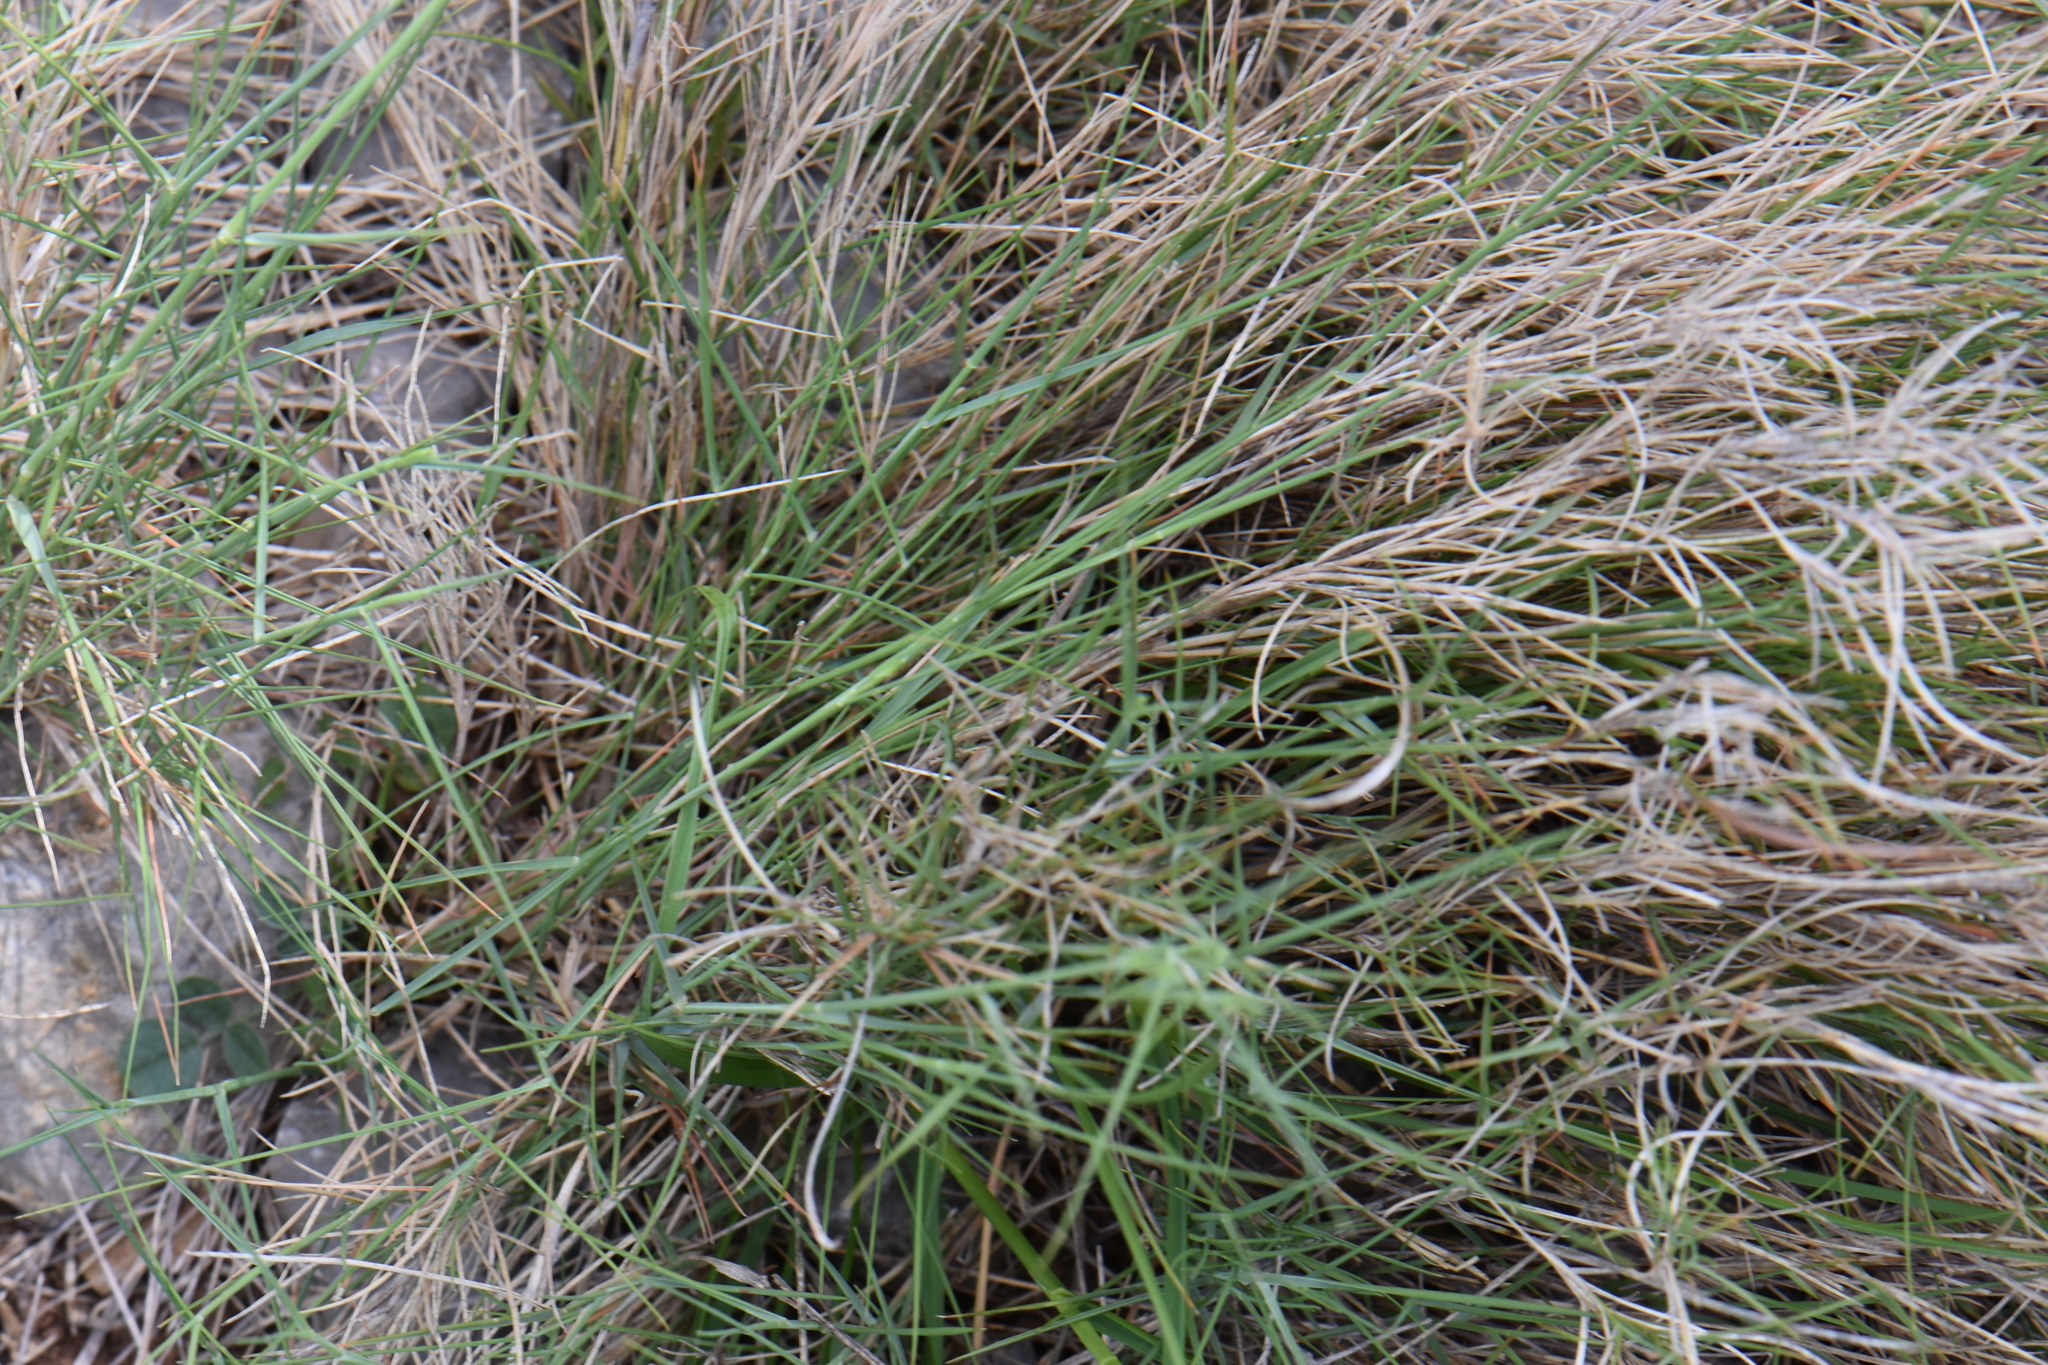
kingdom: Plantae
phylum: Tracheophyta
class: Liliopsida
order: Poales
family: Poaceae
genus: Brachypodium
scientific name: Brachypodium retusum
